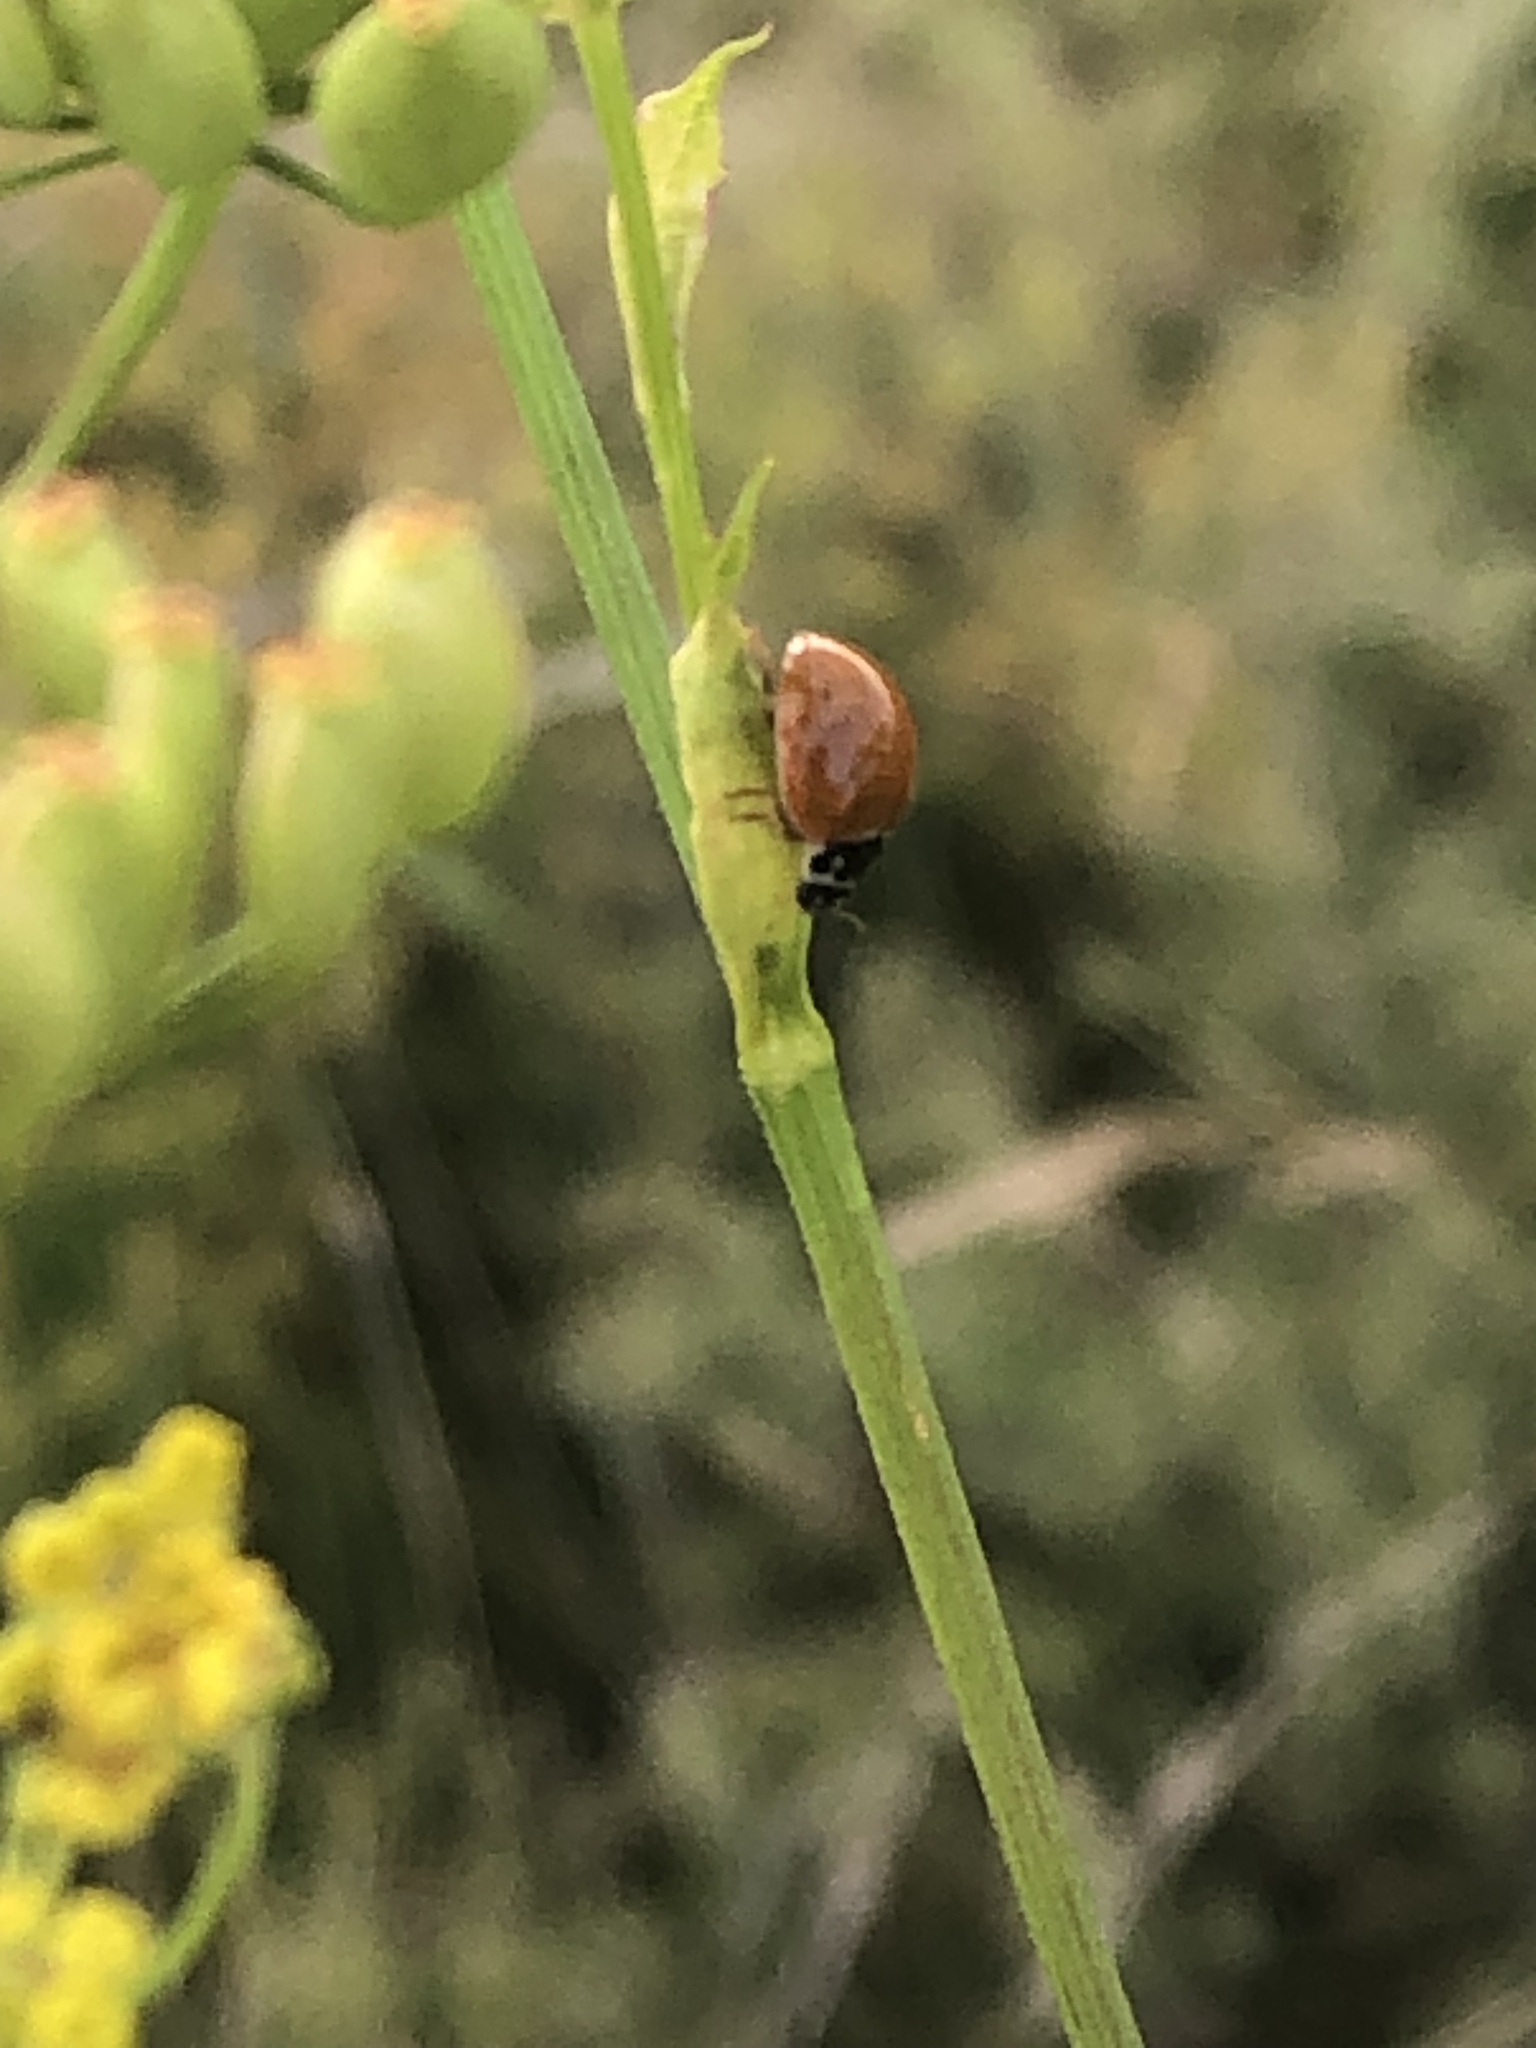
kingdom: Animalia
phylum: Arthropoda
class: Insecta
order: Coleoptera
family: Coccinellidae
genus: Cycloneda
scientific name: Cycloneda munda
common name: Polished lady beetle
